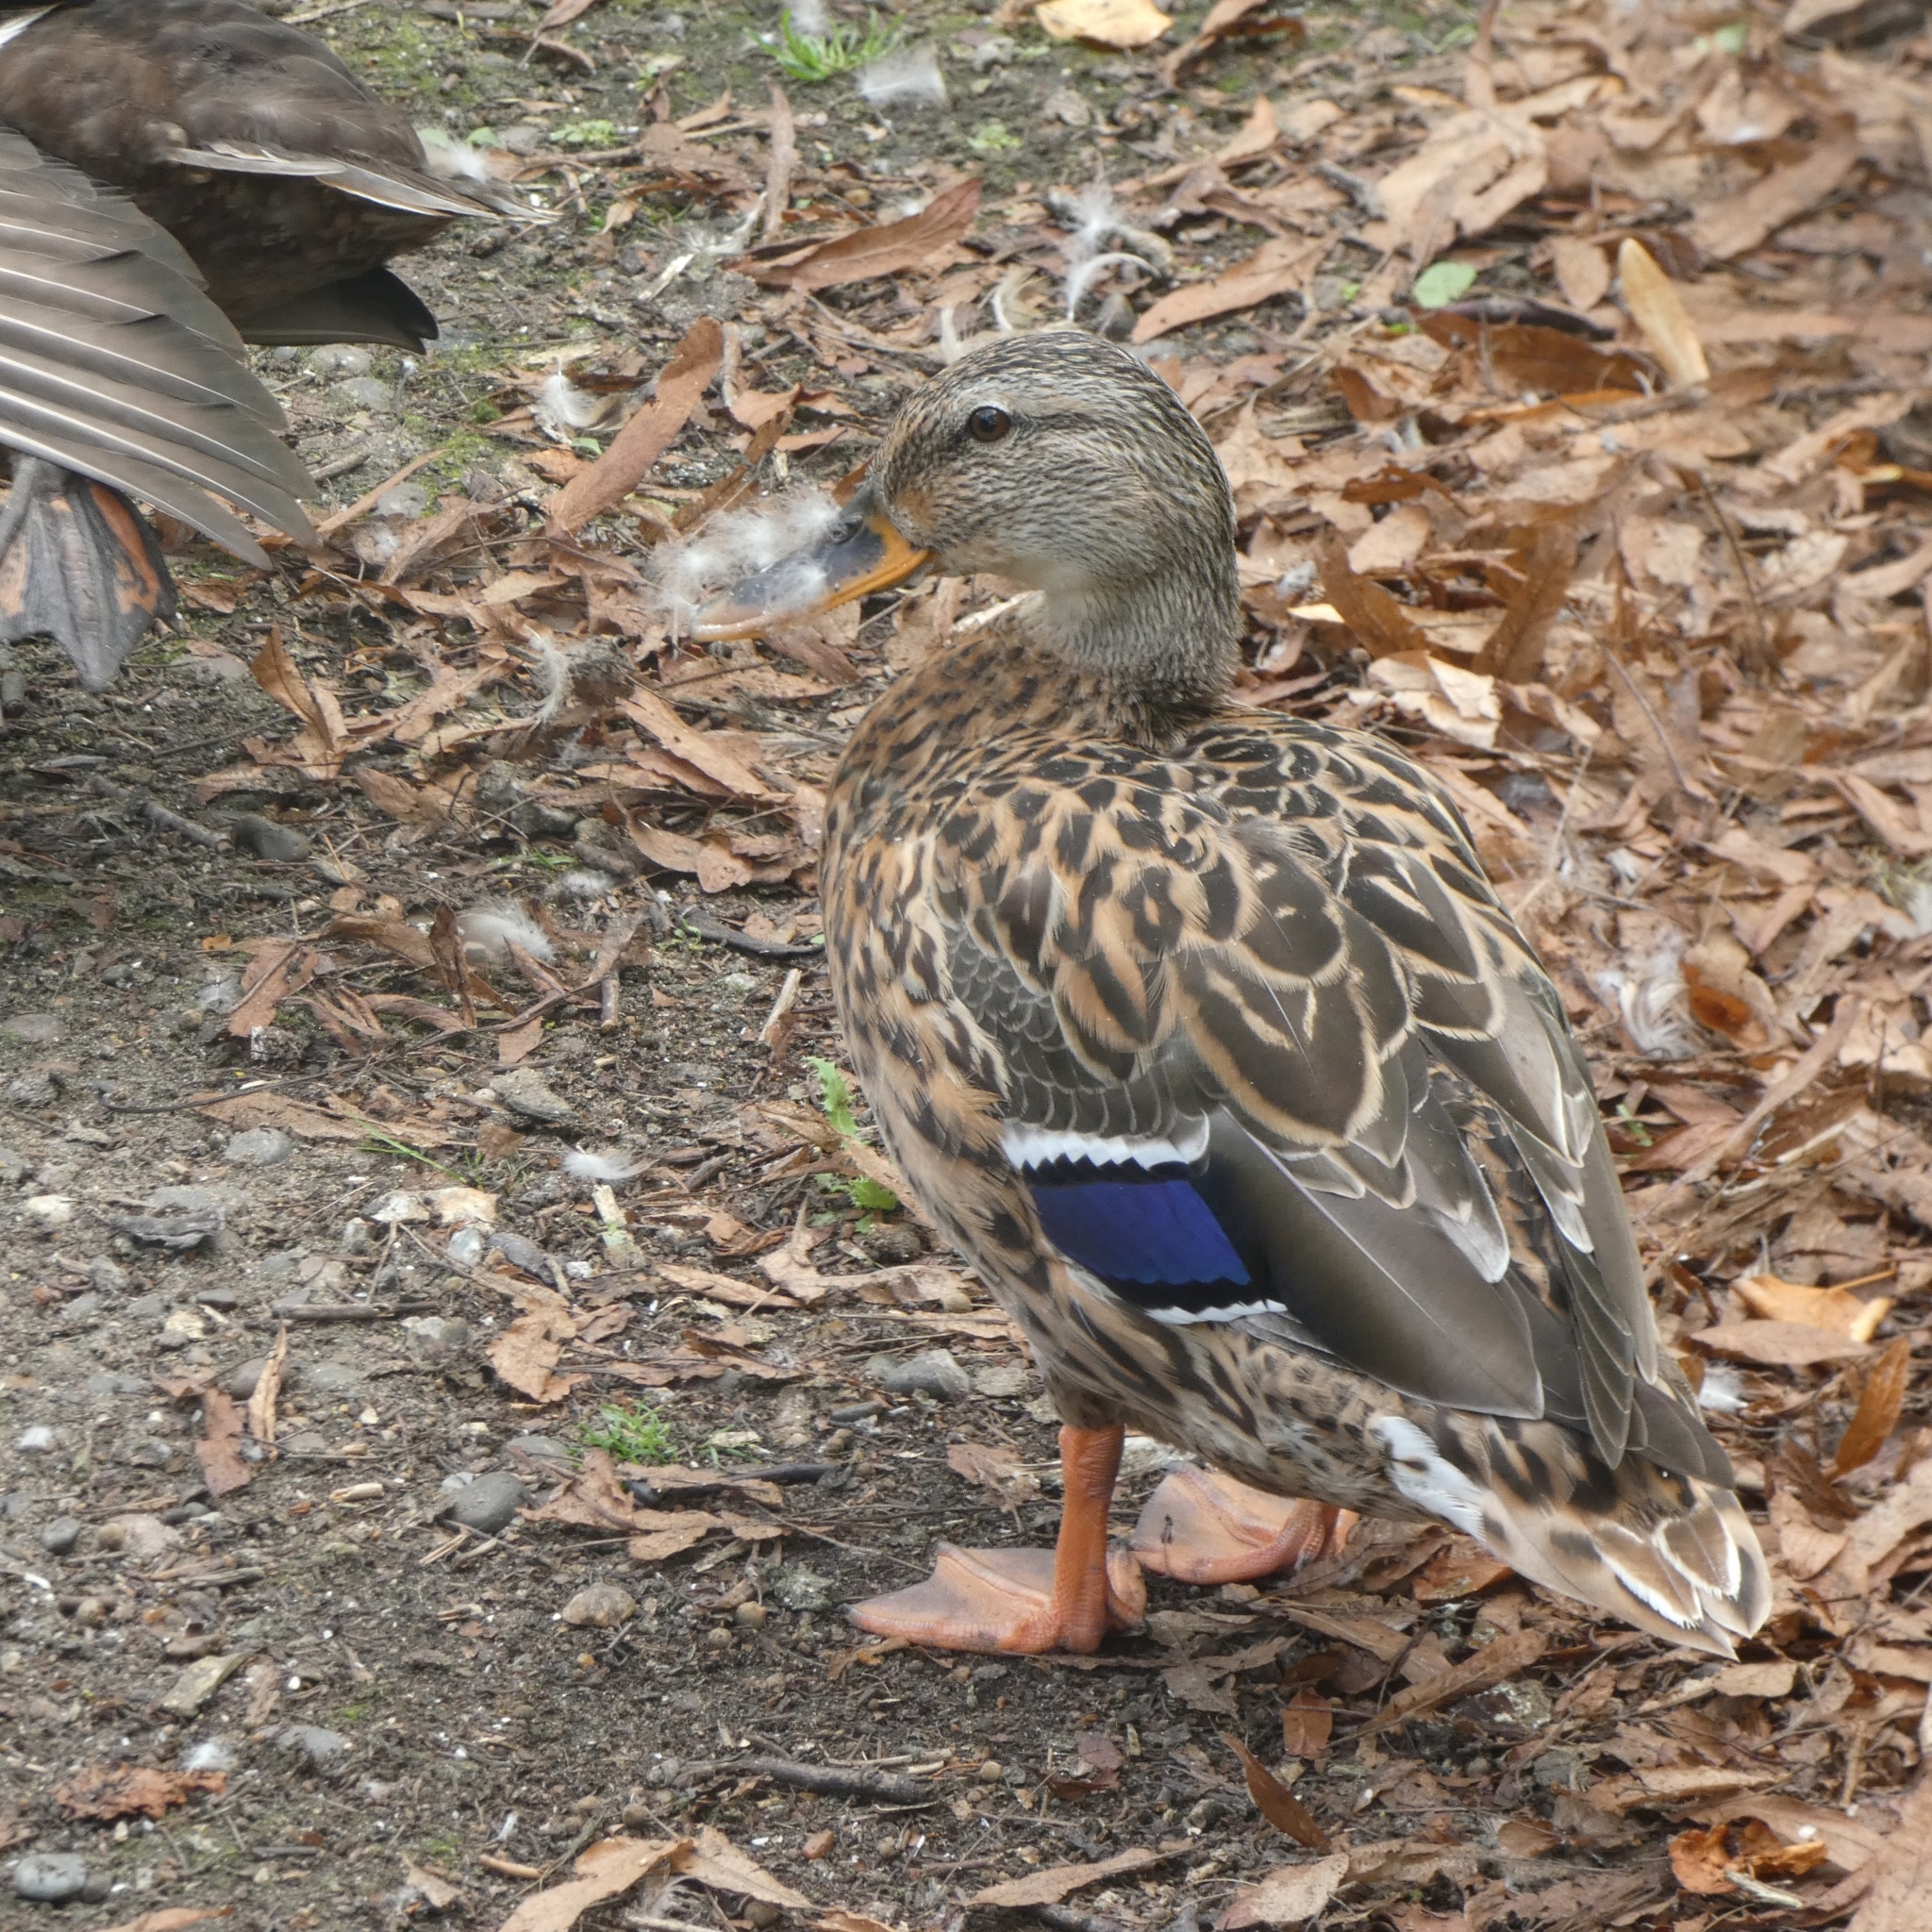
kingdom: Animalia
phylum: Chordata
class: Aves
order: Anseriformes
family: Anatidae
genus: Anas
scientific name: Anas platyrhynchos
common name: Mallard
